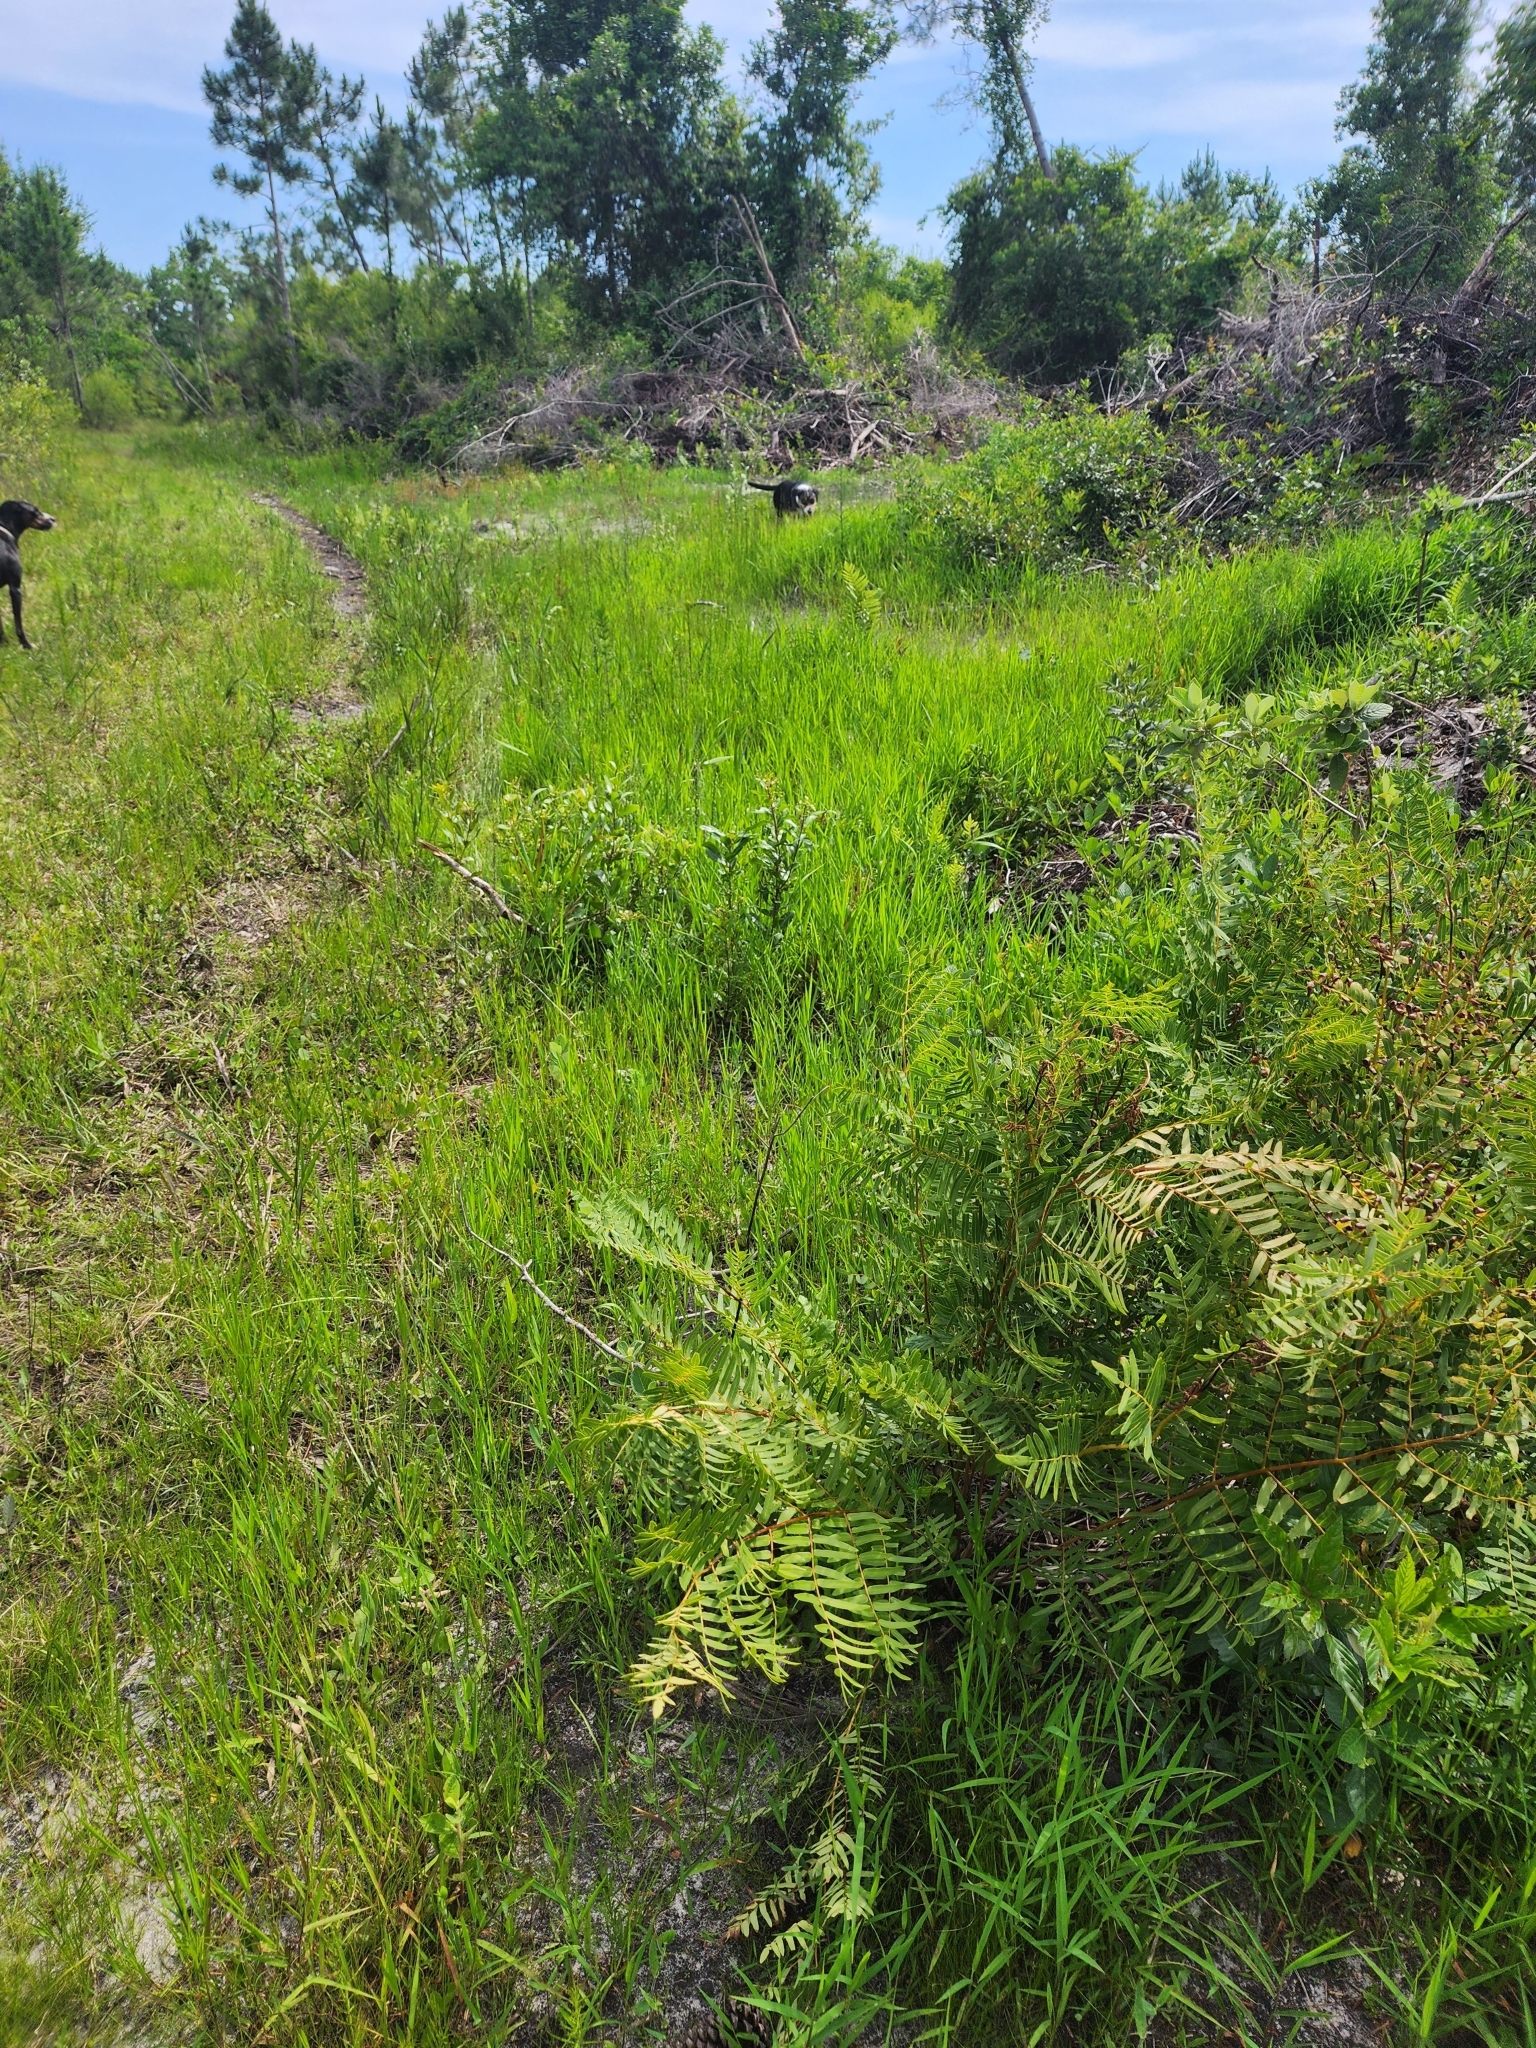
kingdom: Plantae
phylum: Tracheophyta
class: Polypodiopsida
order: Osmundales
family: Osmundaceae
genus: Osmunda
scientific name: Osmunda spectabilis
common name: American royal fern
